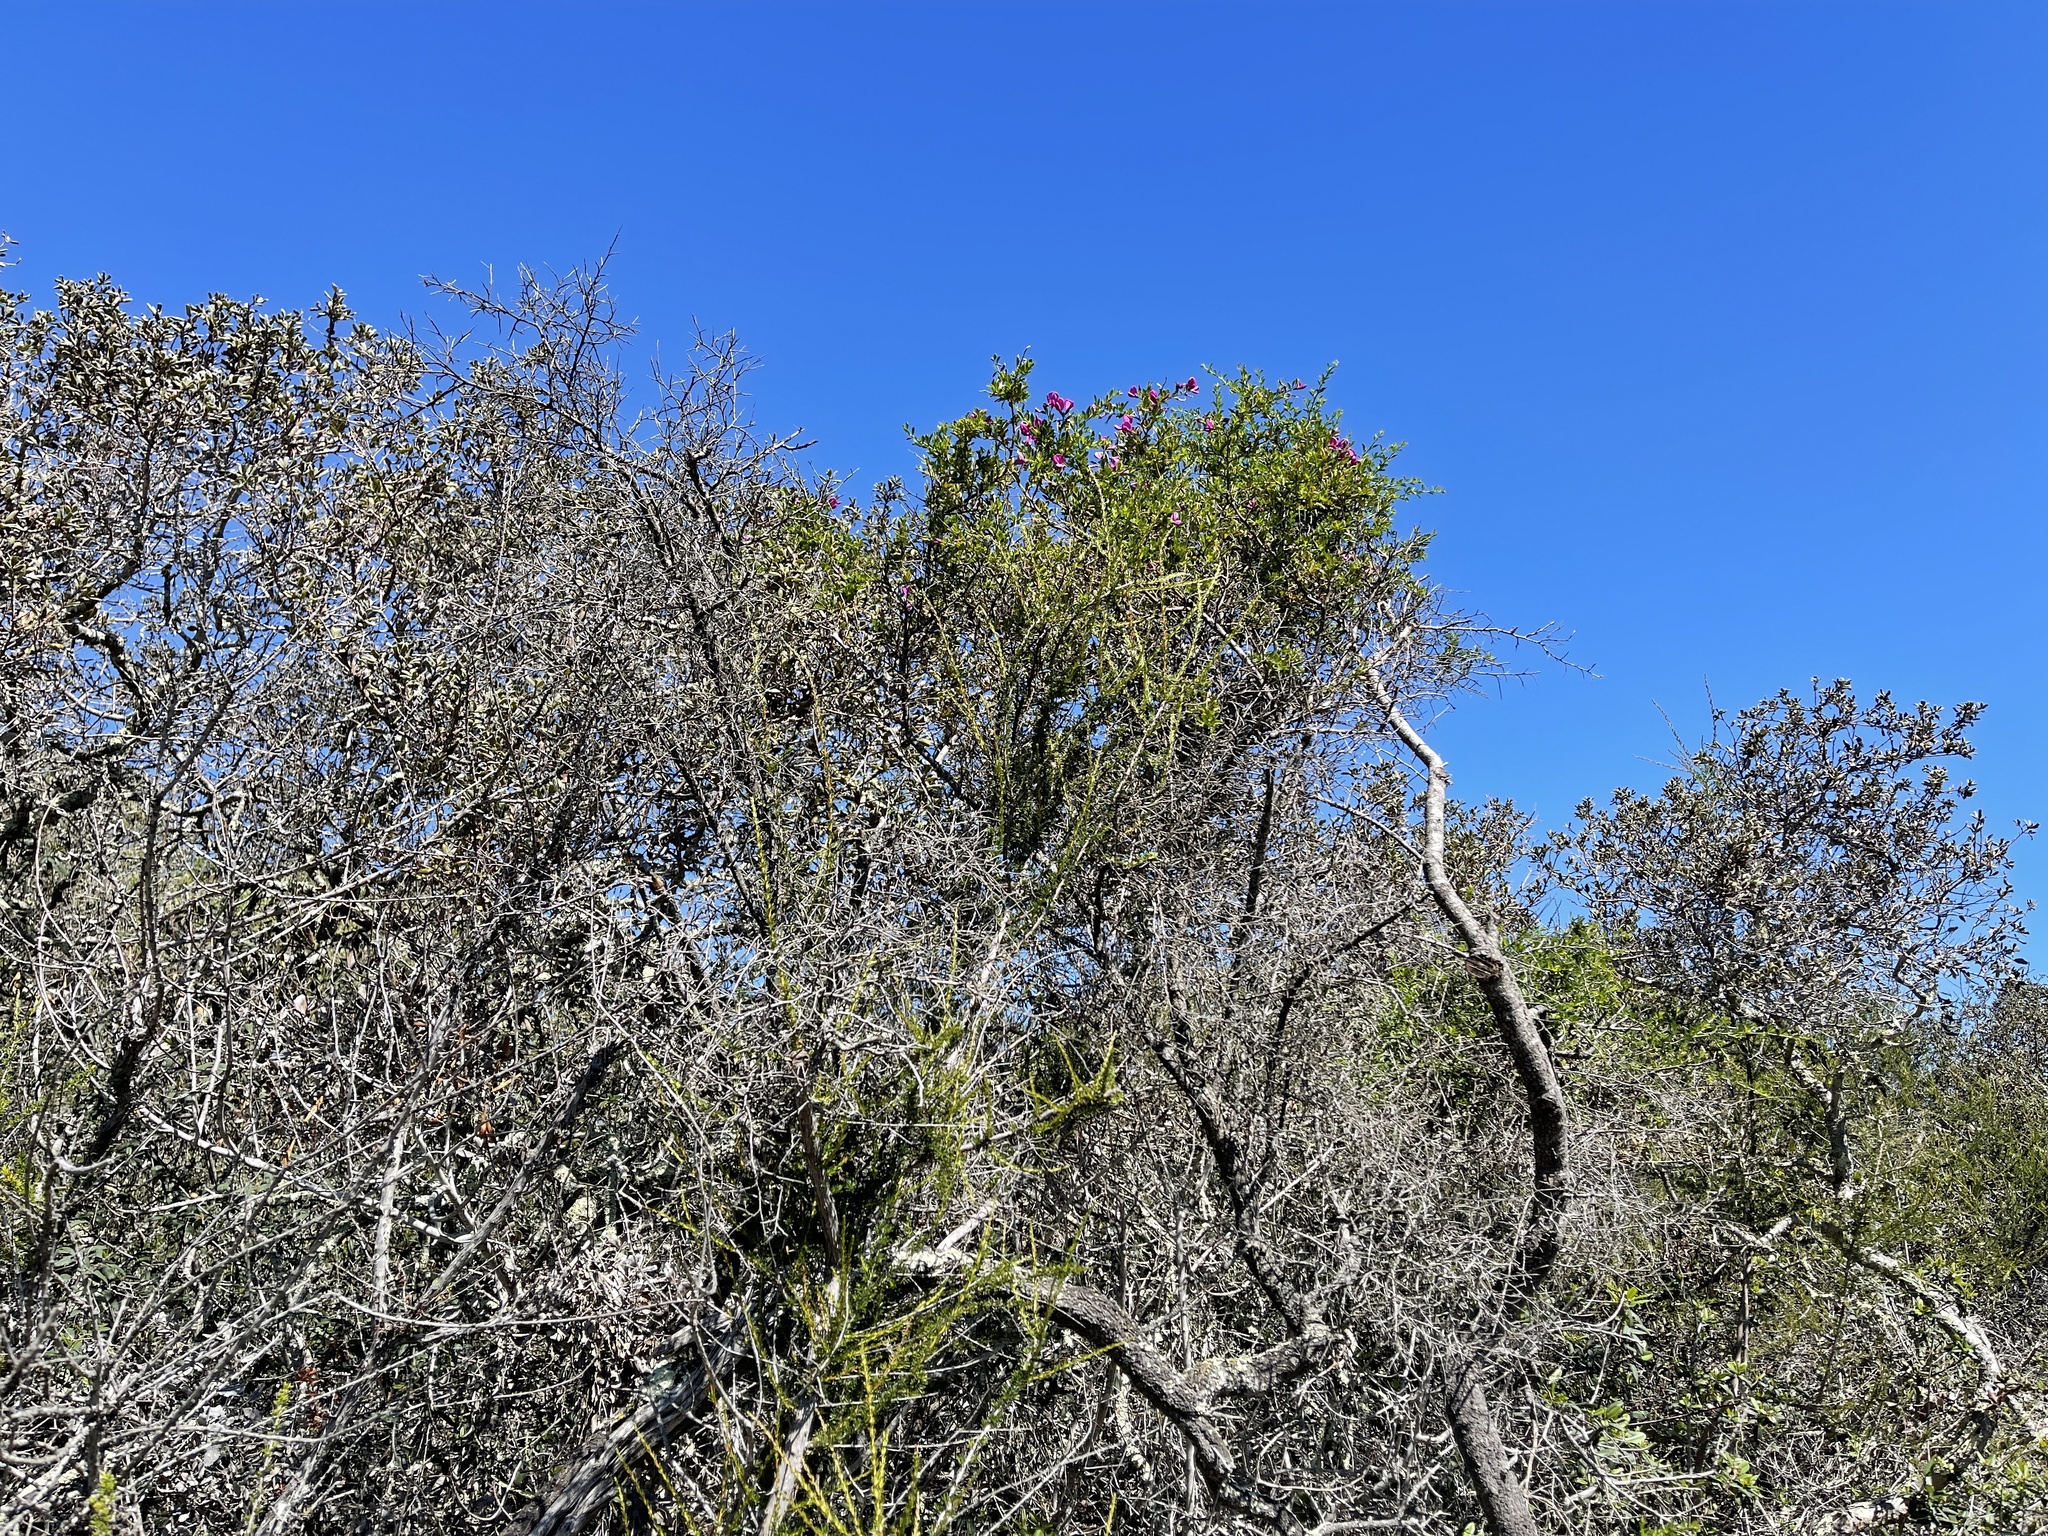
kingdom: Plantae
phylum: Tracheophyta
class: Magnoliopsida
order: Fabales
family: Fabaceae
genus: Pickeringia
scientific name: Pickeringia montana
